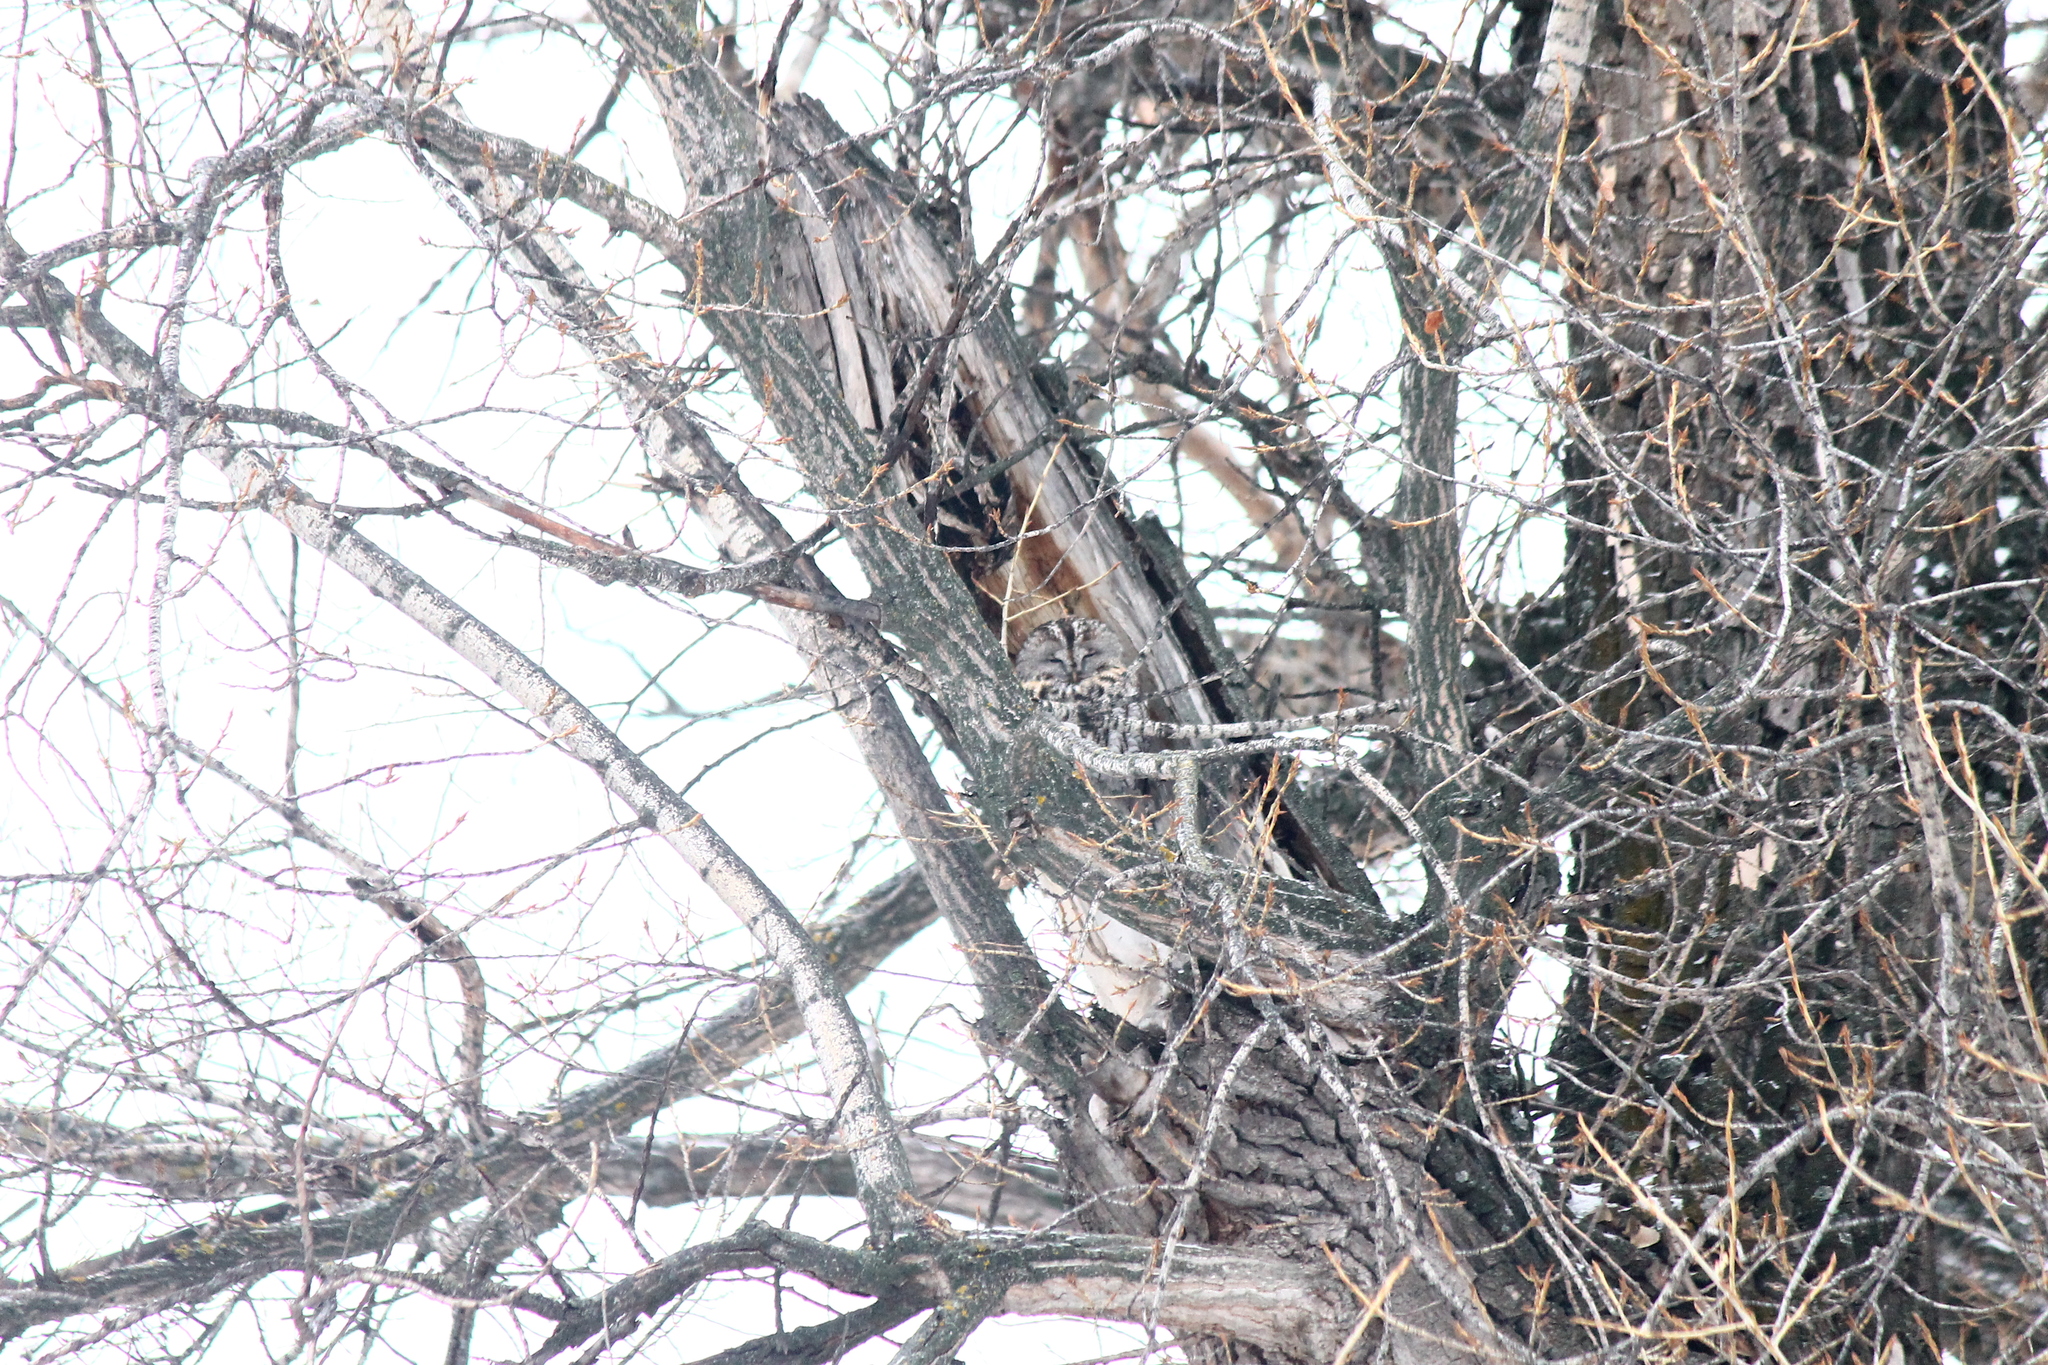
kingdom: Animalia
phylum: Chordata
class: Aves
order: Strigiformes
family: Strigidae
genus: Strix
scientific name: Strix aluco
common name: Tawny owl
